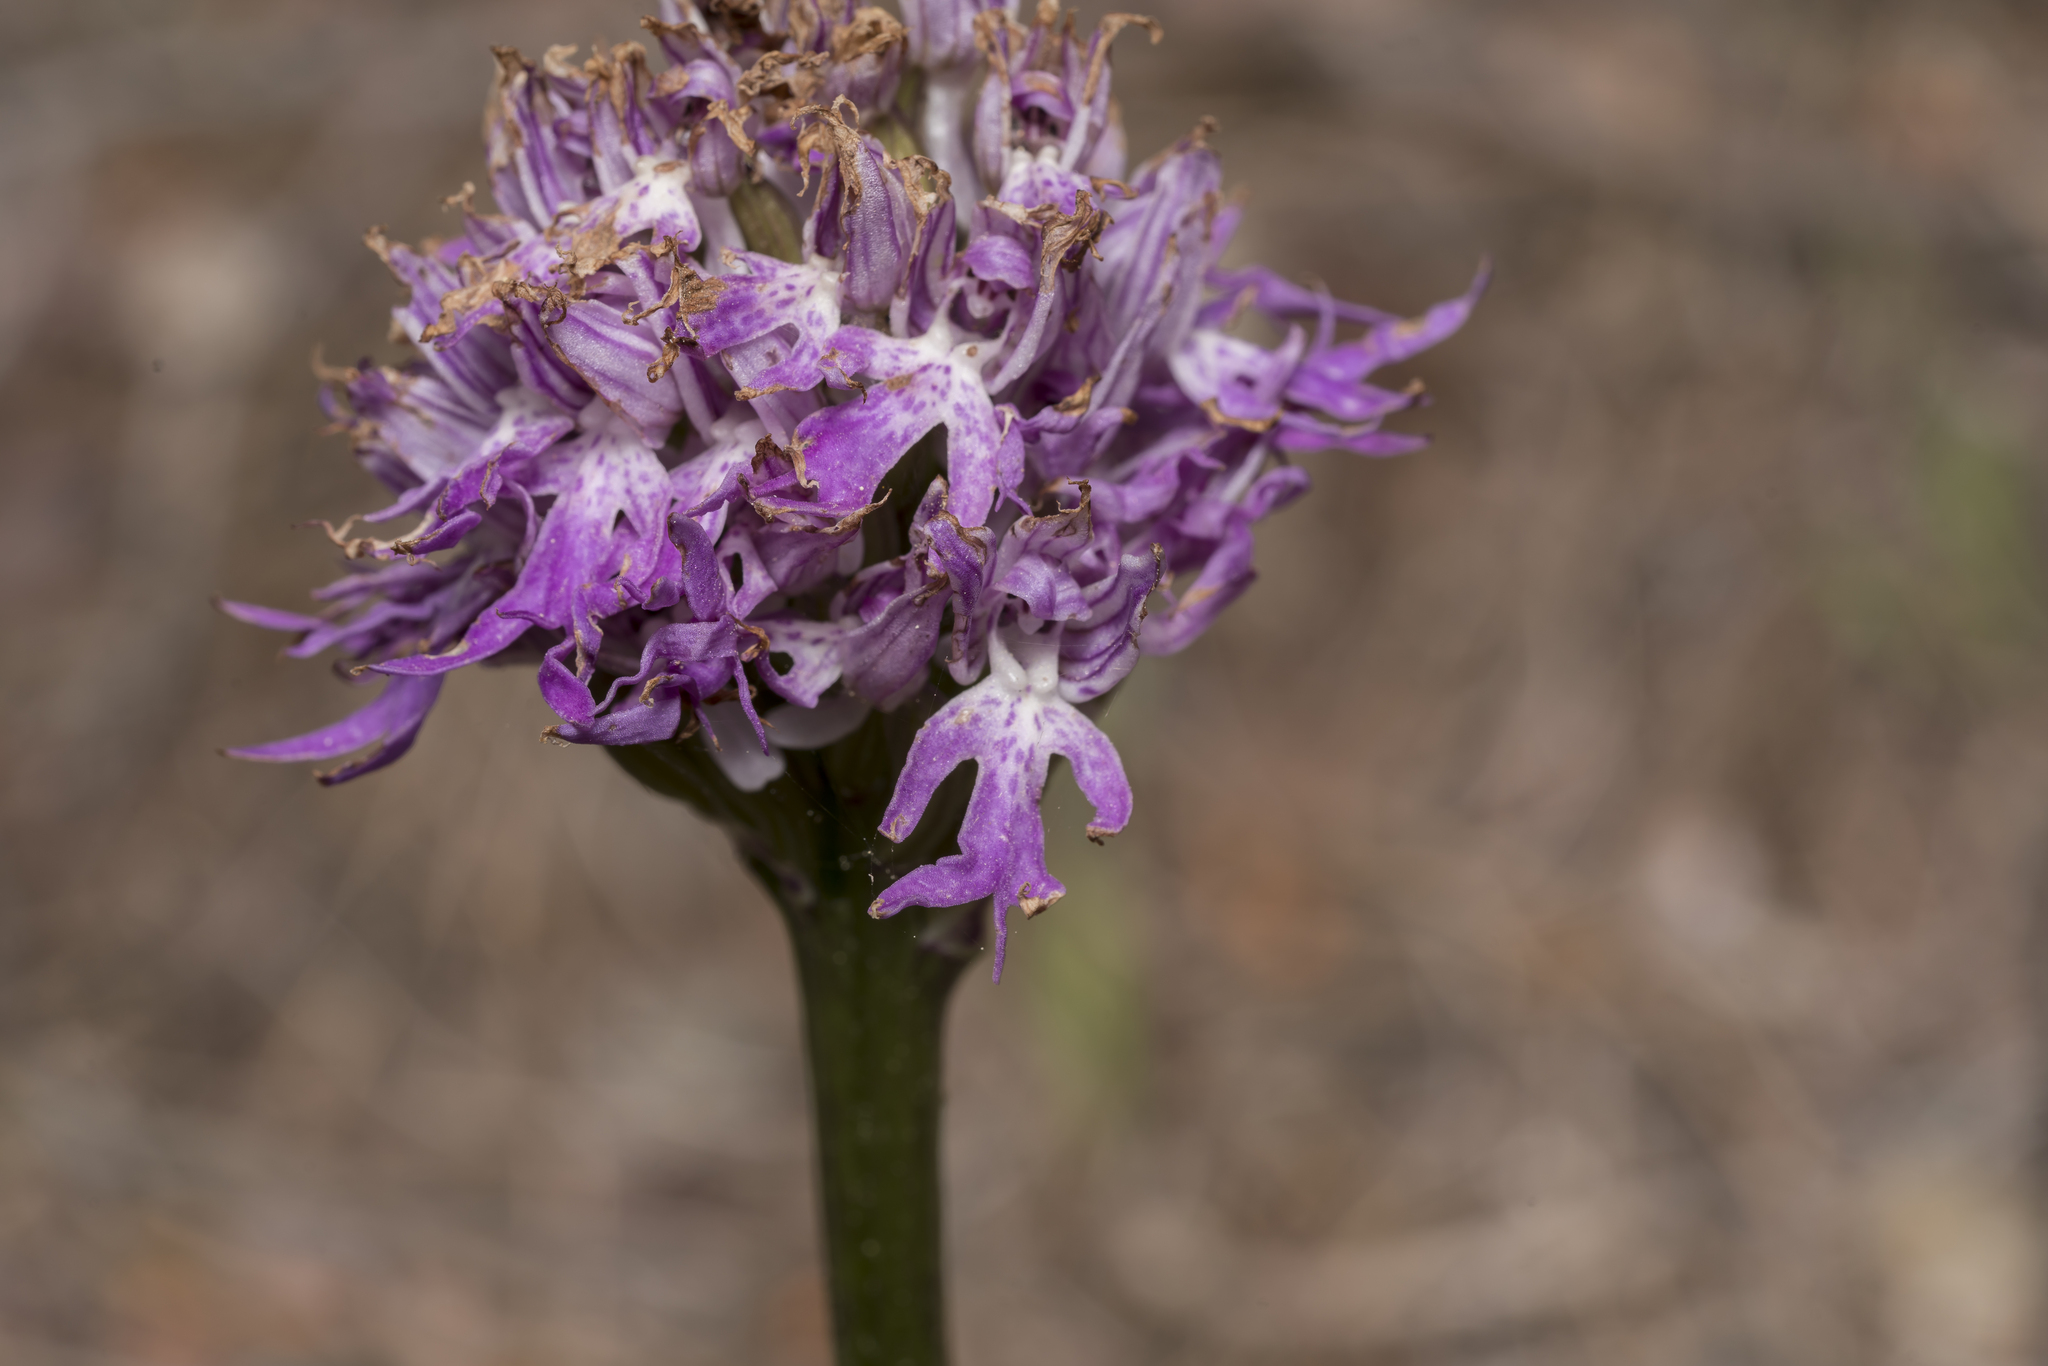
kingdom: Plantae
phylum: Tracheophyta
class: Liliopsida
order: Asparagales
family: Orchidaceae
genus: Orchis
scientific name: Orchis italica
